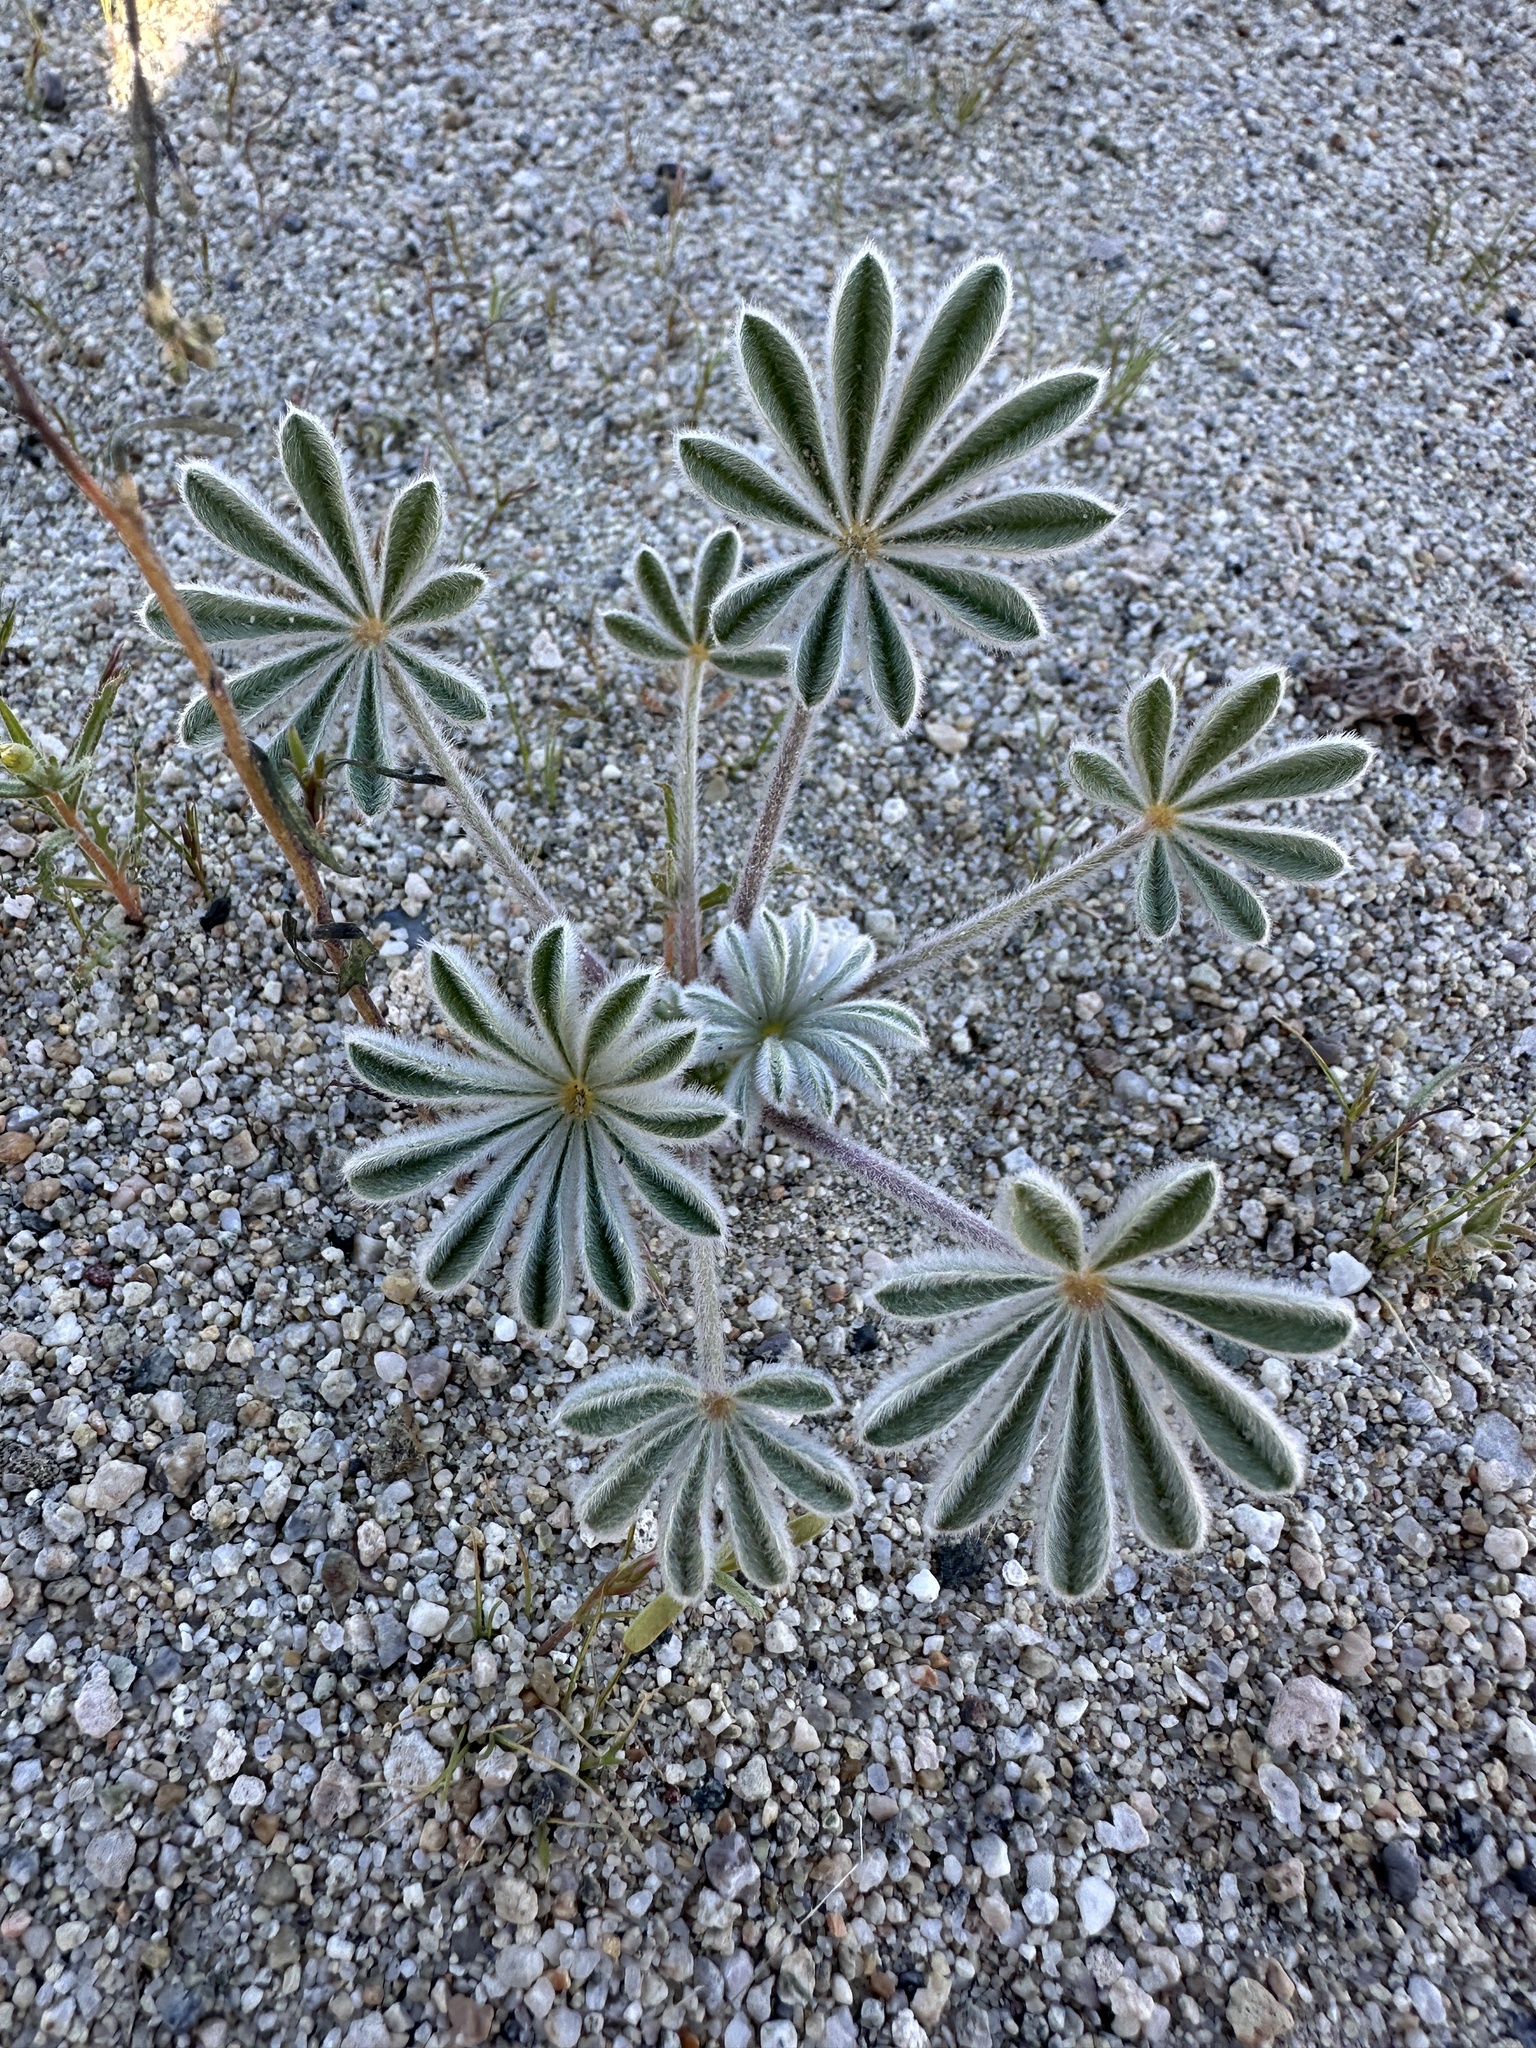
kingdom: Plantae
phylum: Tracheophyta
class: Magnoliopsida
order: Fabales
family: Fabaceae
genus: Lupinus
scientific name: Lupinus shockleyi
